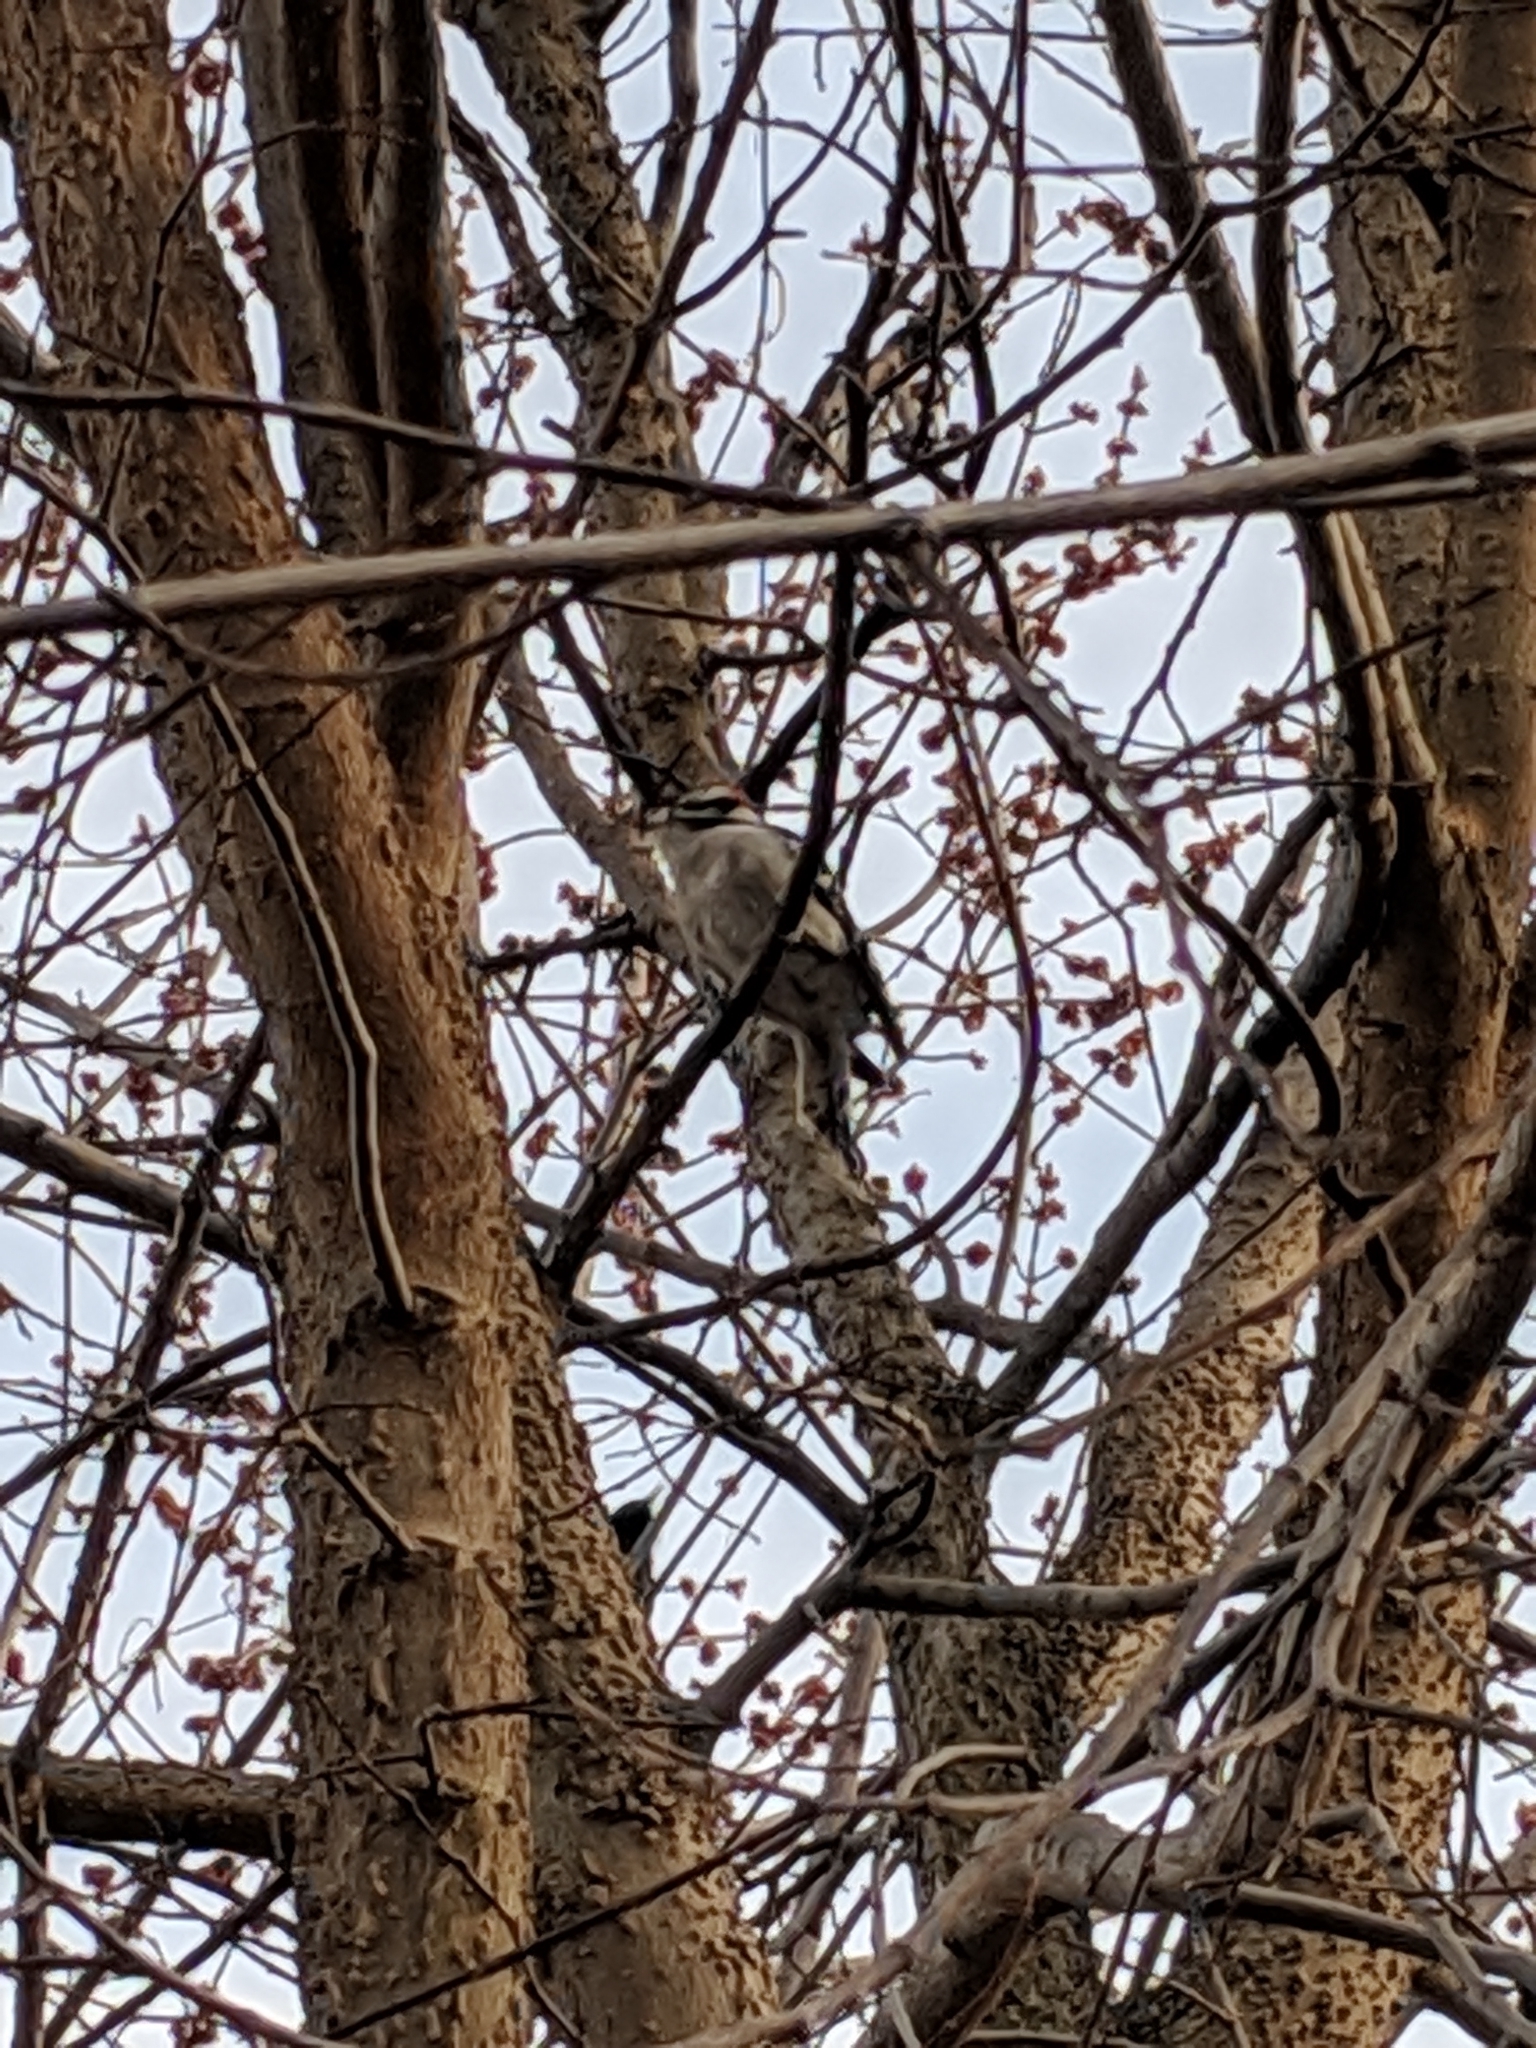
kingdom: Animalia
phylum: Chordata
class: Aves
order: Piciformes
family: Picidae
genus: Dryobates
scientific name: Dryobates pubescens
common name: Downy woodpecker
